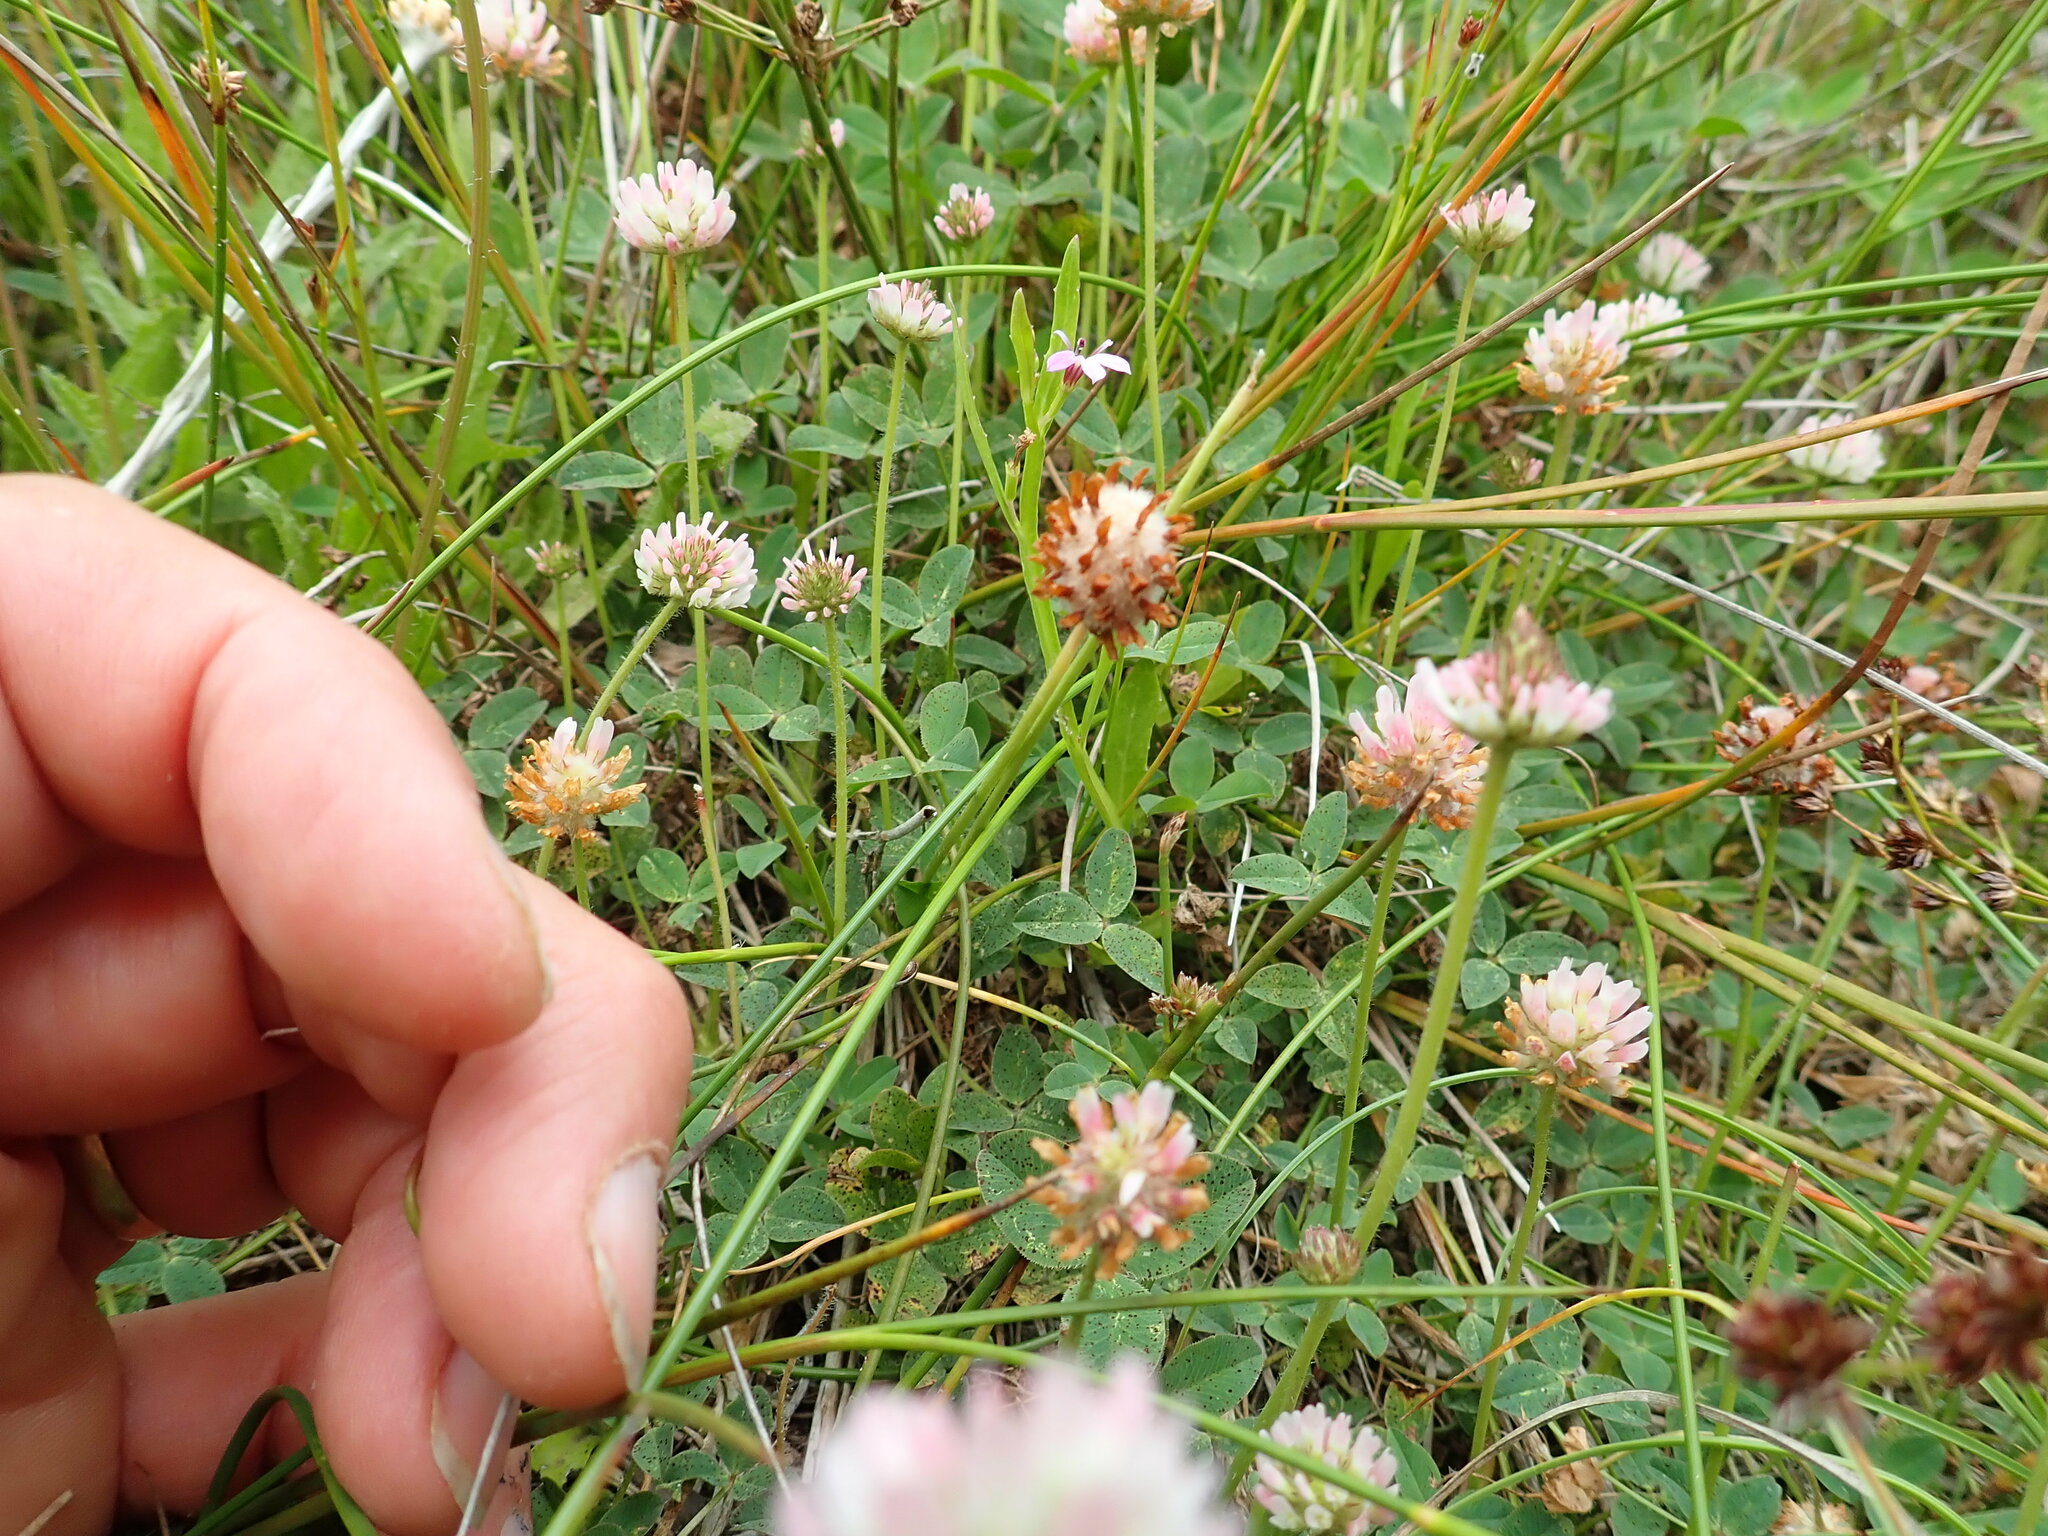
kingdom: Plantae
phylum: Tracheophyta
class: Magnoliopsida
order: Fabales
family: Fabaceae
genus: Trifolium
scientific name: Trifolium fragiferum
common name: Strawberry clover
